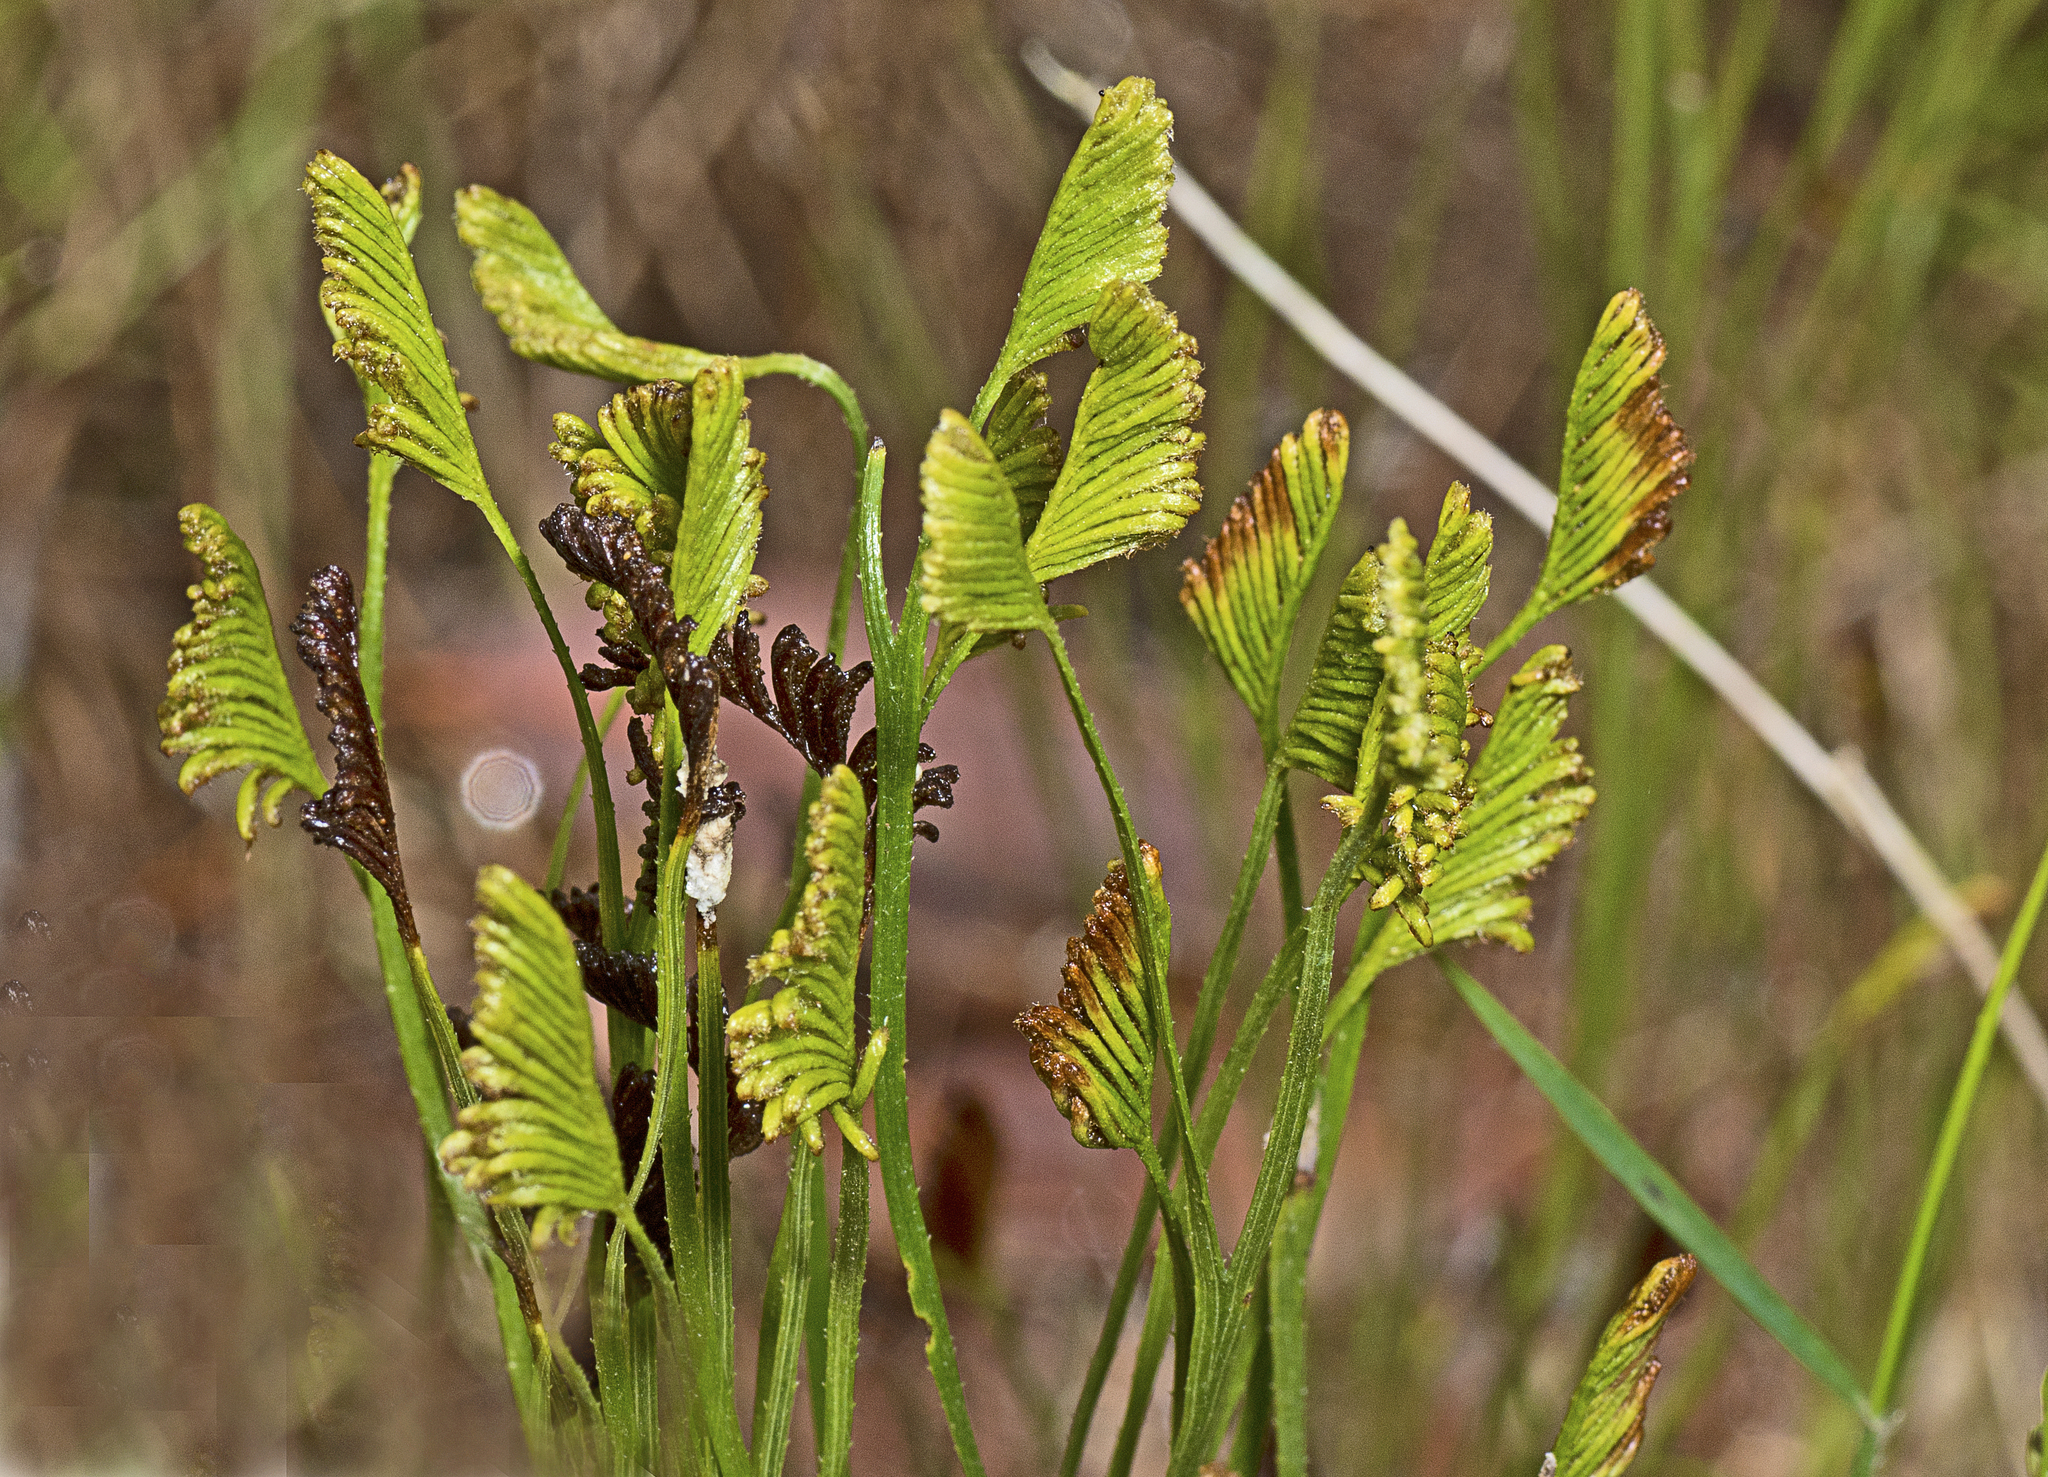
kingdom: Plantae
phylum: Tracheophyta
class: Polypodiopsida
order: Schizaeales
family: Schizaeaceae
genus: Schizaea
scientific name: Schizaea bifida
